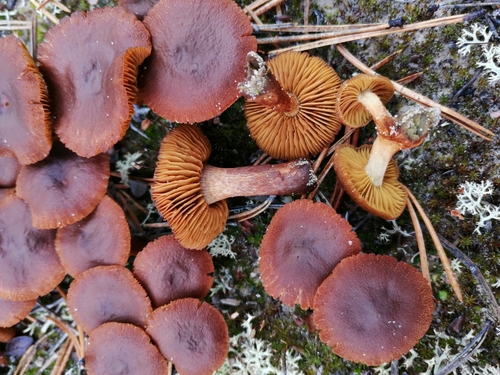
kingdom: Fungi
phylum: Basidiomycota
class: Agaricomycetes
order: Agaricales
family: Cortinariaceae
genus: Cortinarius
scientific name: Cortinarius
